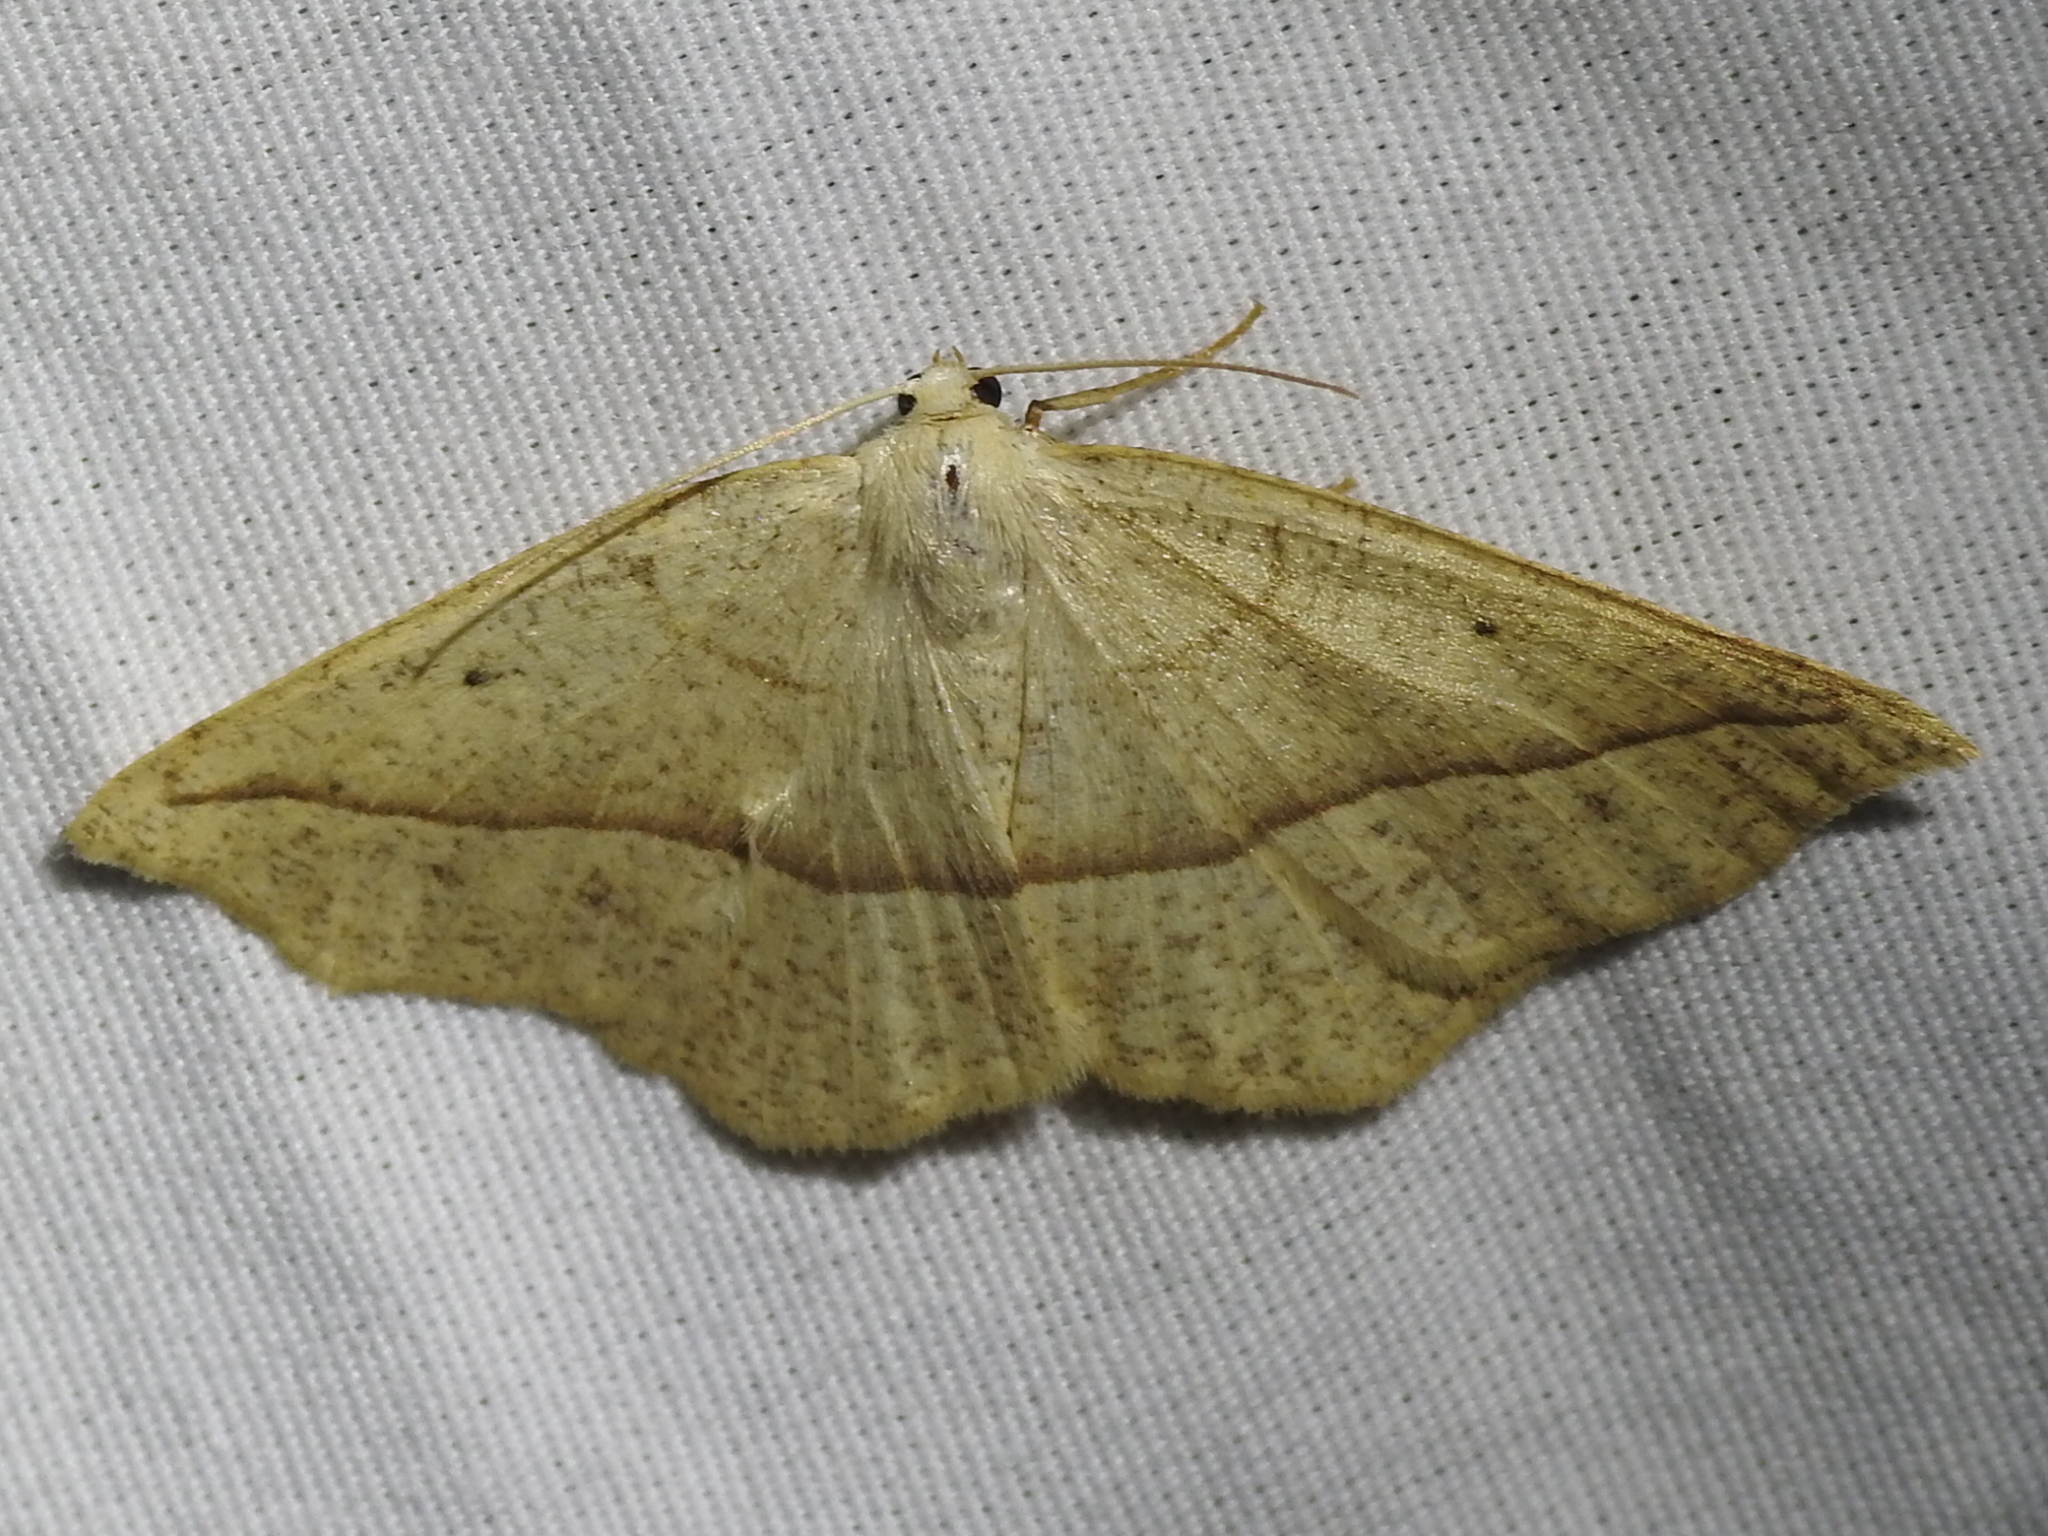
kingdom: Animalia
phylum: Arthropoda
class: Insecta
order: Lepidoptera
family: Geometridae
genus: Eusarca
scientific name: Eusarca confusaria
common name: Confused eusarca
